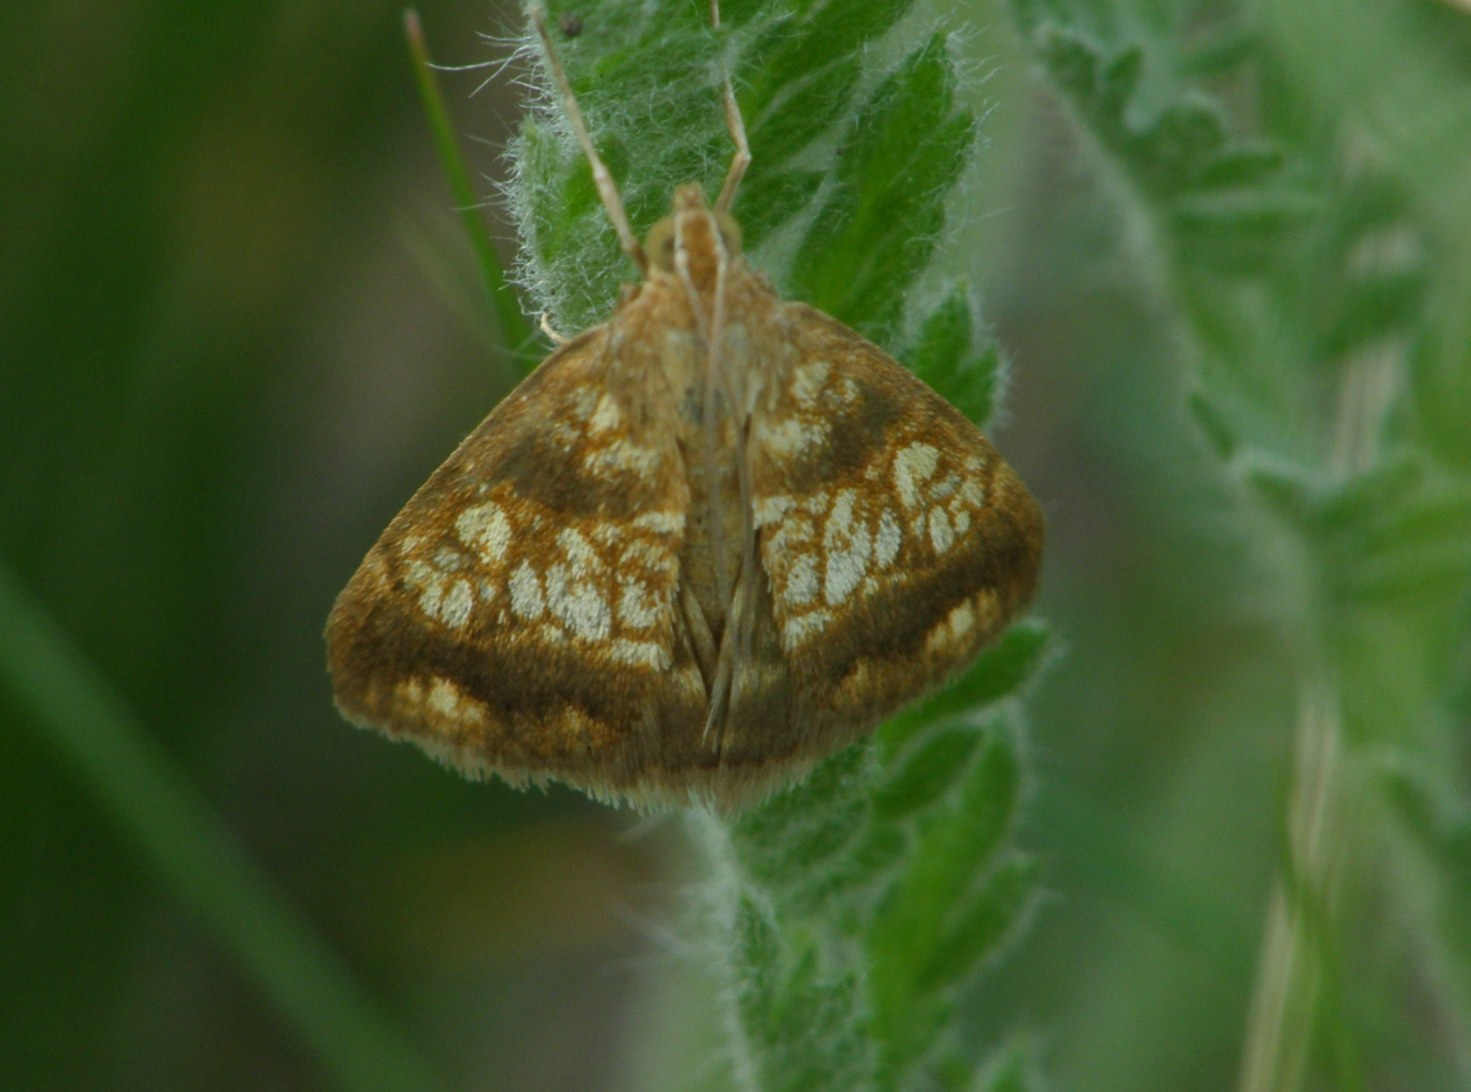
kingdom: Animalia
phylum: Arthropoda
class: Insecta
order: Lepidoptera
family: Crambidae
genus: Evergestis
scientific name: Evergestis politalis
